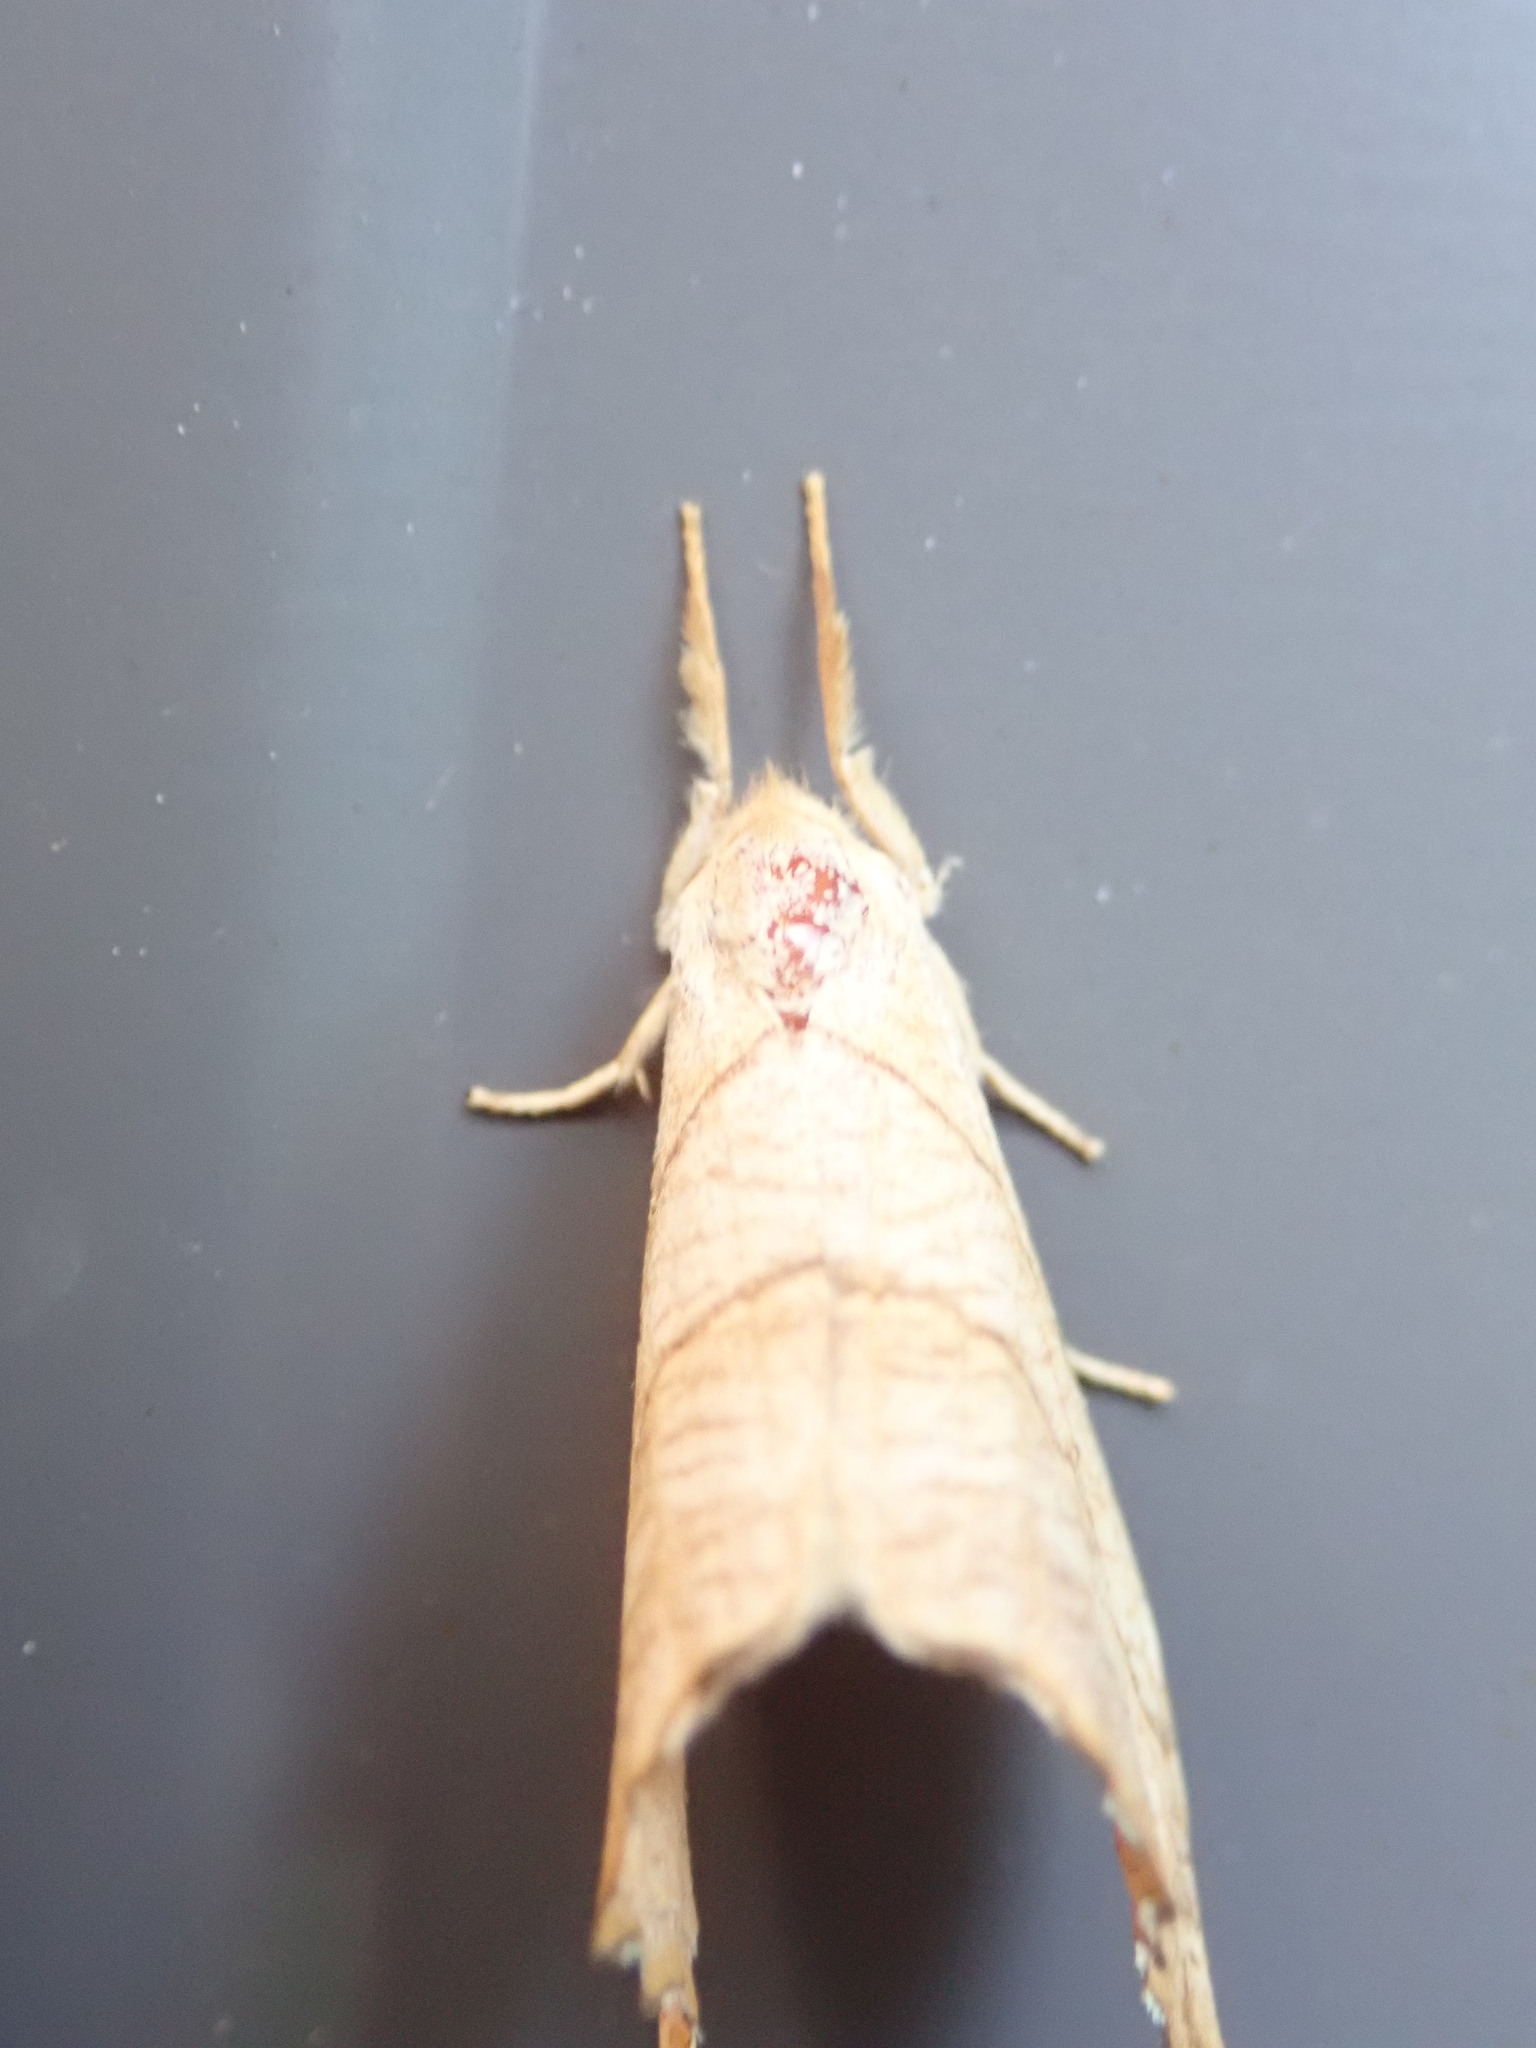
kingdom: Animalia
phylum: Arthropoda
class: Insecta
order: Lepidoptera
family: Drepanidae
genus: Falcaria
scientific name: Falcaria bilineata
